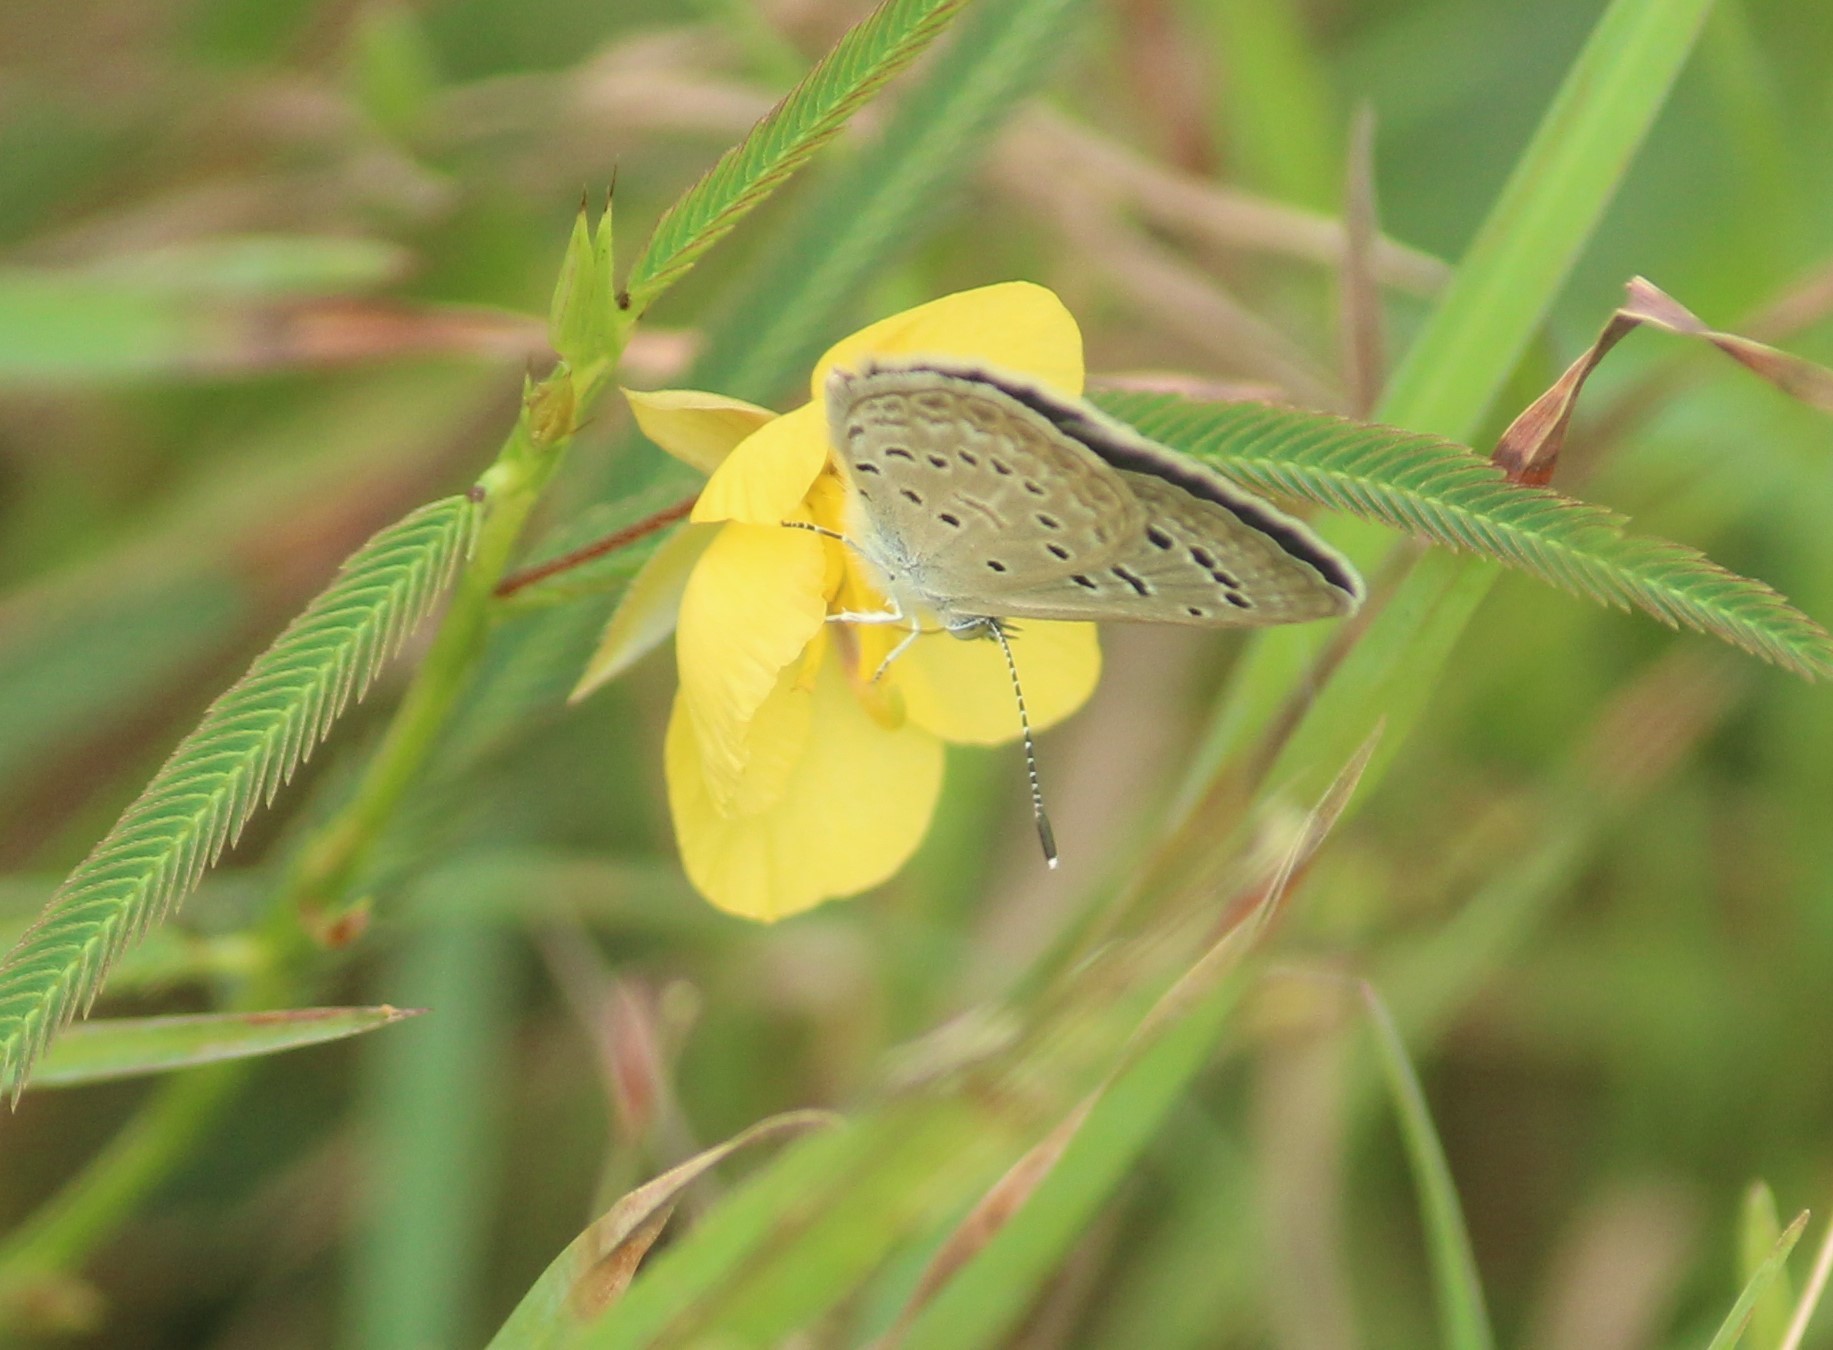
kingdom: Animalia
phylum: Arthropoda
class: Insecta
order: Lepidoptera
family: Lycaenidae
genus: Zizeeria
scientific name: Zizeeria karsandra
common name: Dark grass blue
